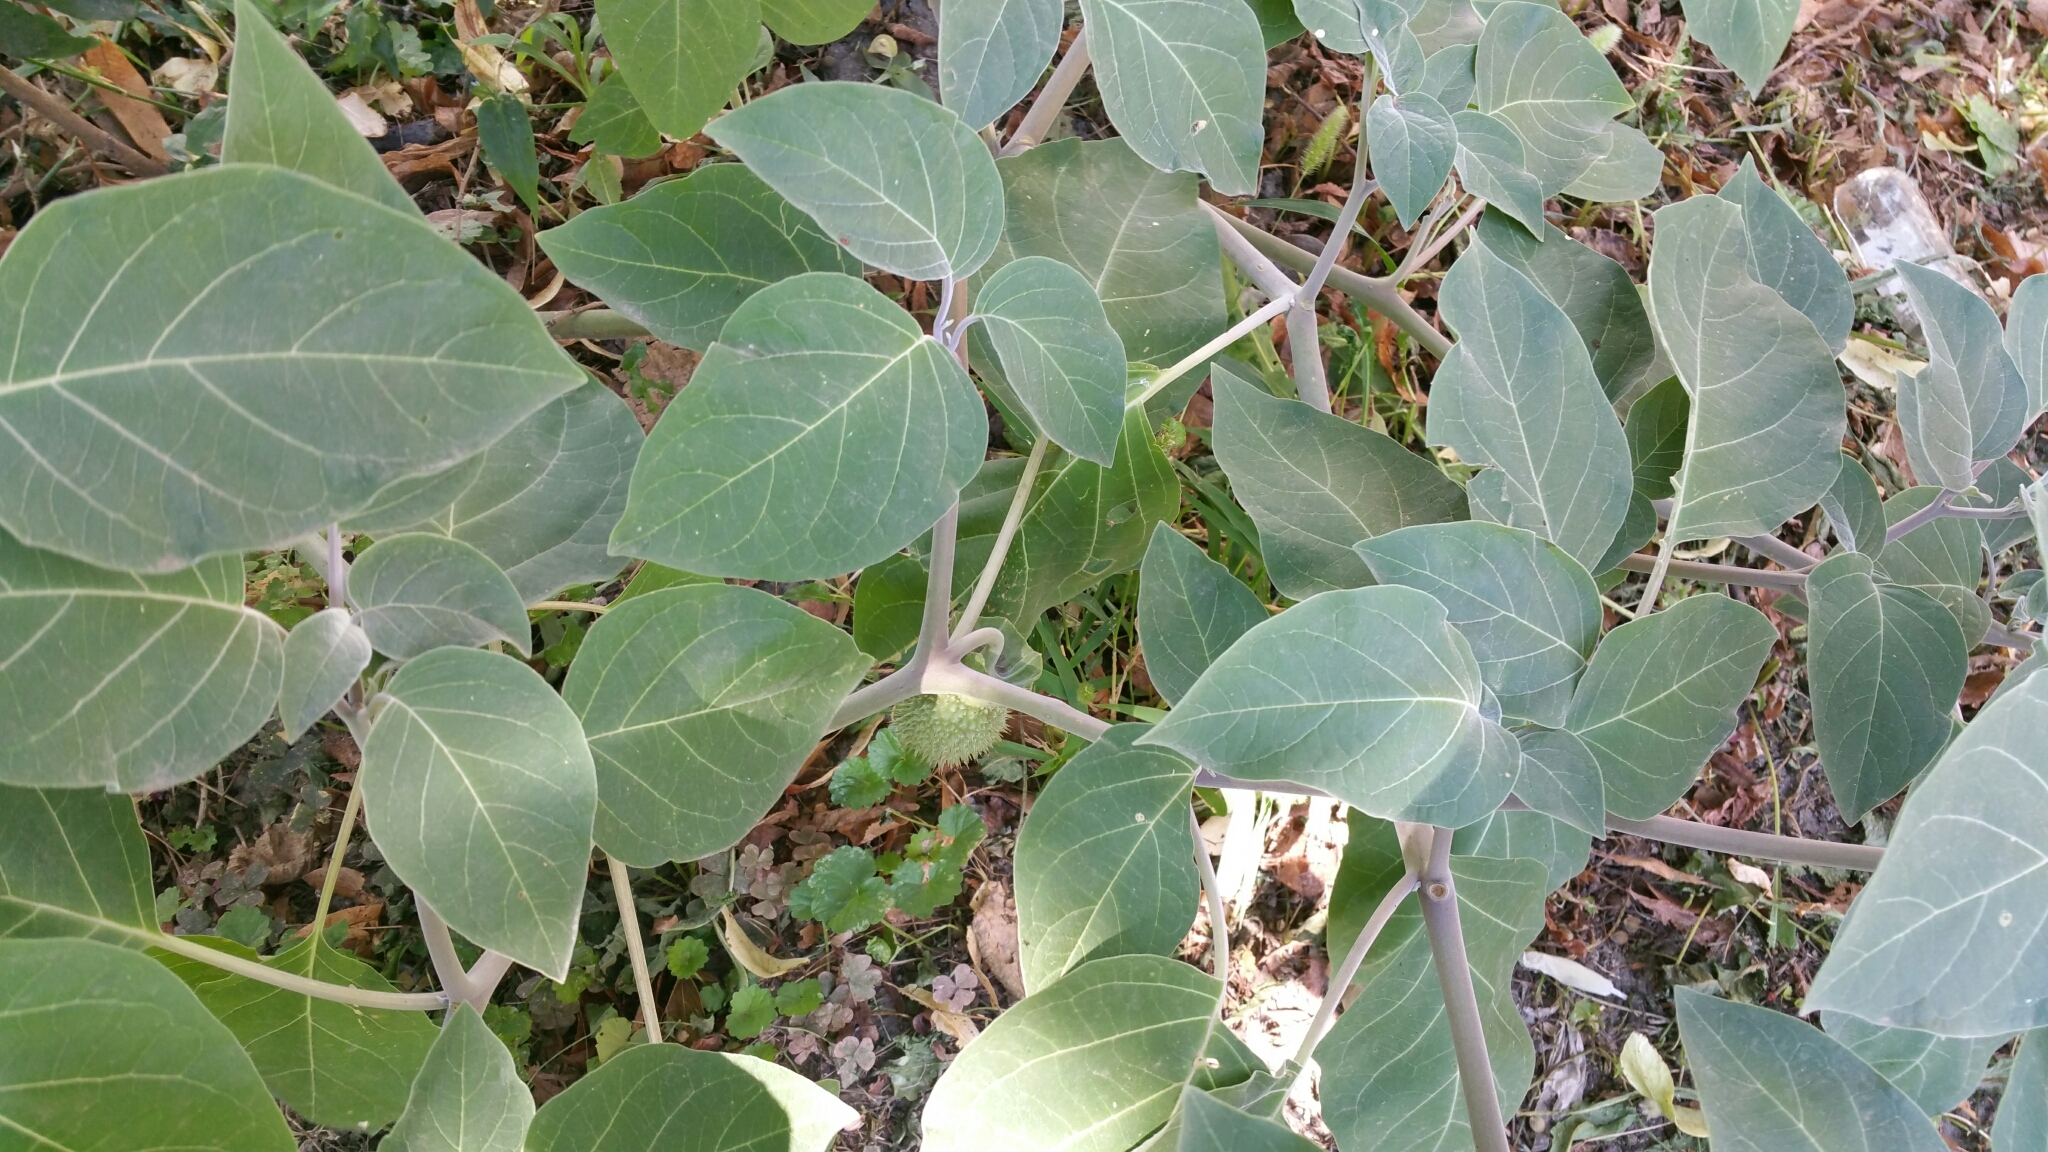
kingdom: Plantae
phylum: Tracheophyta
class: Magnoliopsida
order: Solanales
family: Solanaceae
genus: Datura
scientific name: Datura innoxia
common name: Downy thorn-apple
